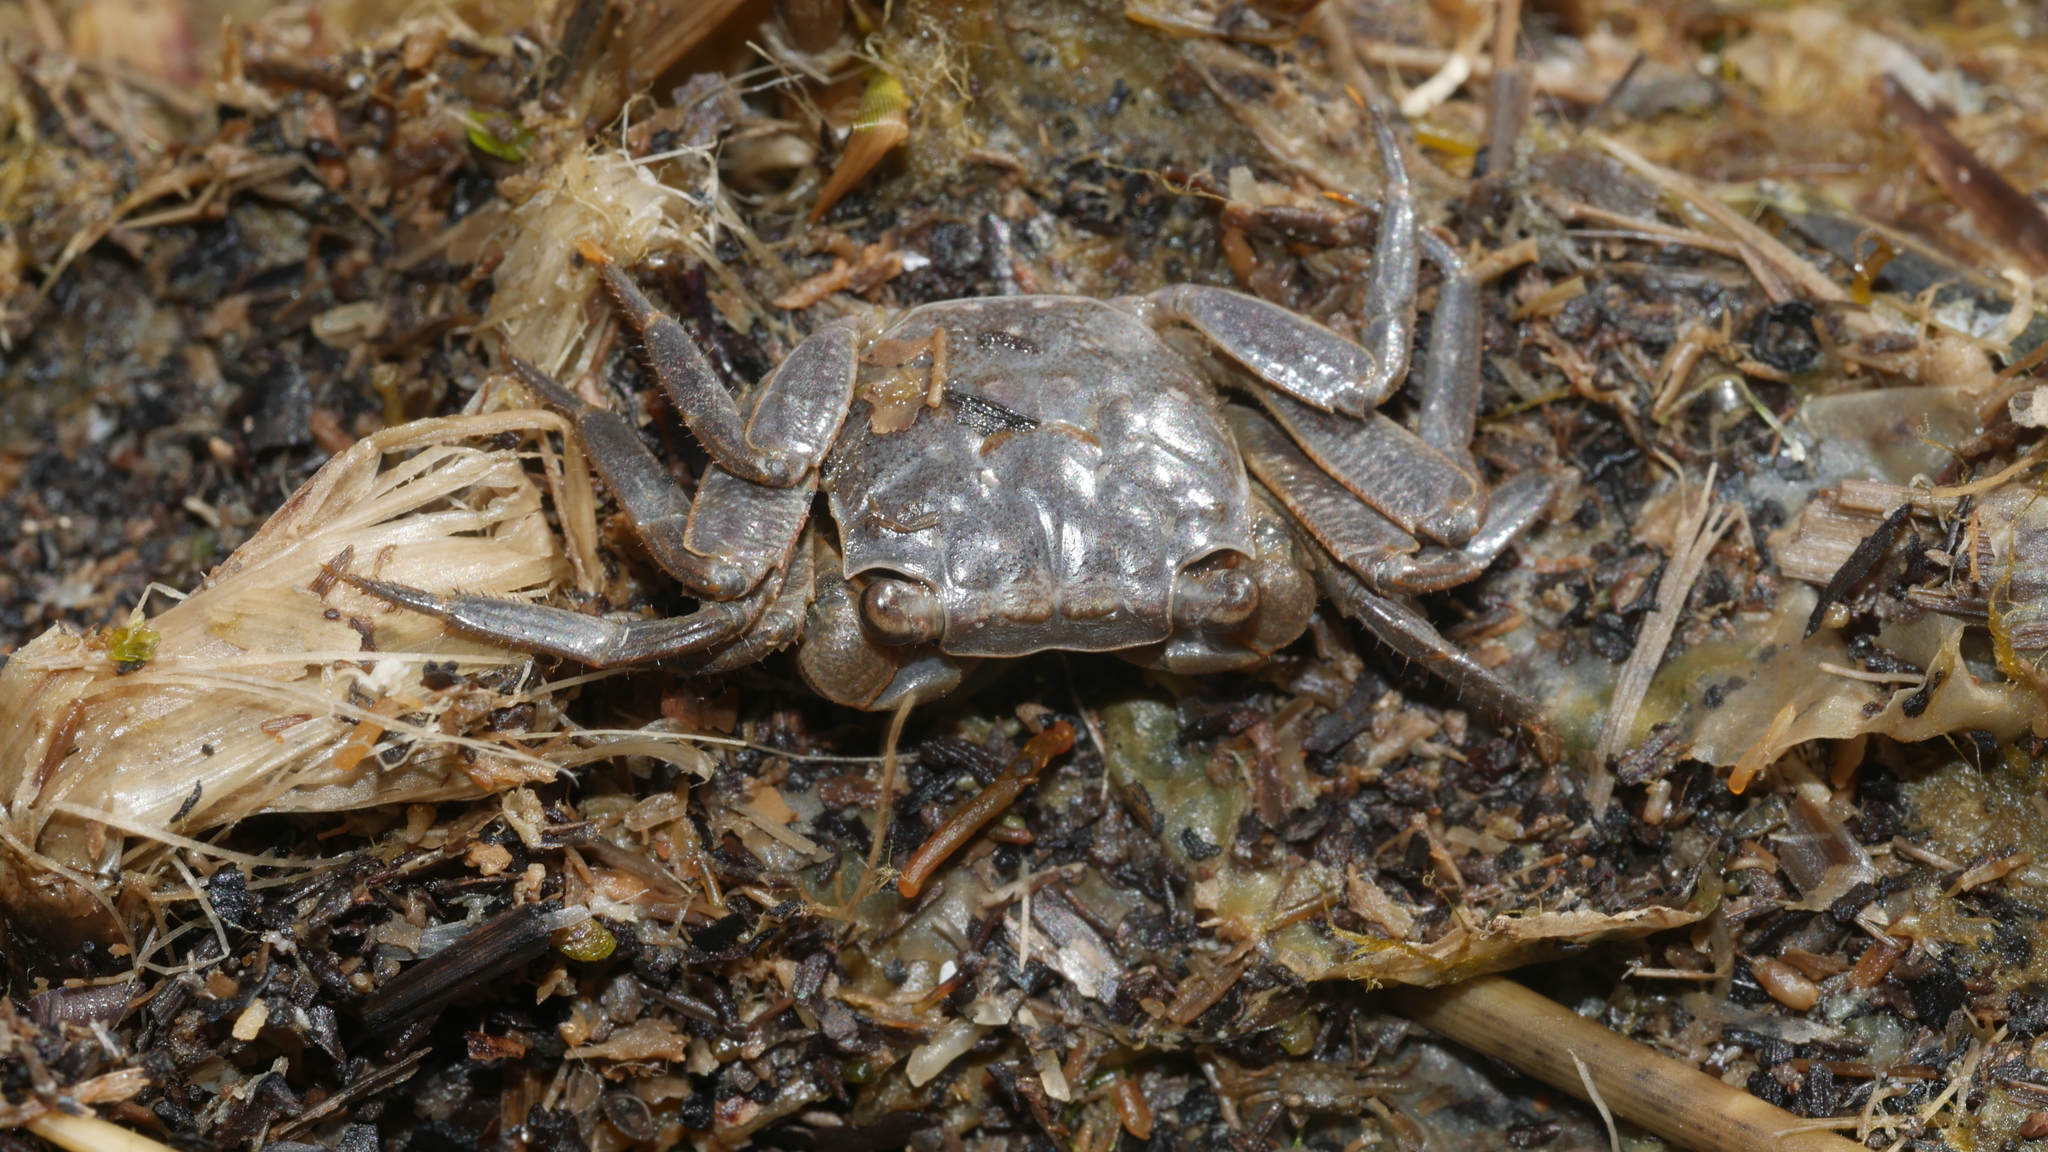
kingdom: Animalia
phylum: Arthropoda
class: Malacostraca
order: Decapoda
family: Sesarmidae
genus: Armases
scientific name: Armases cinereum
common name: Squareback marsh crab
